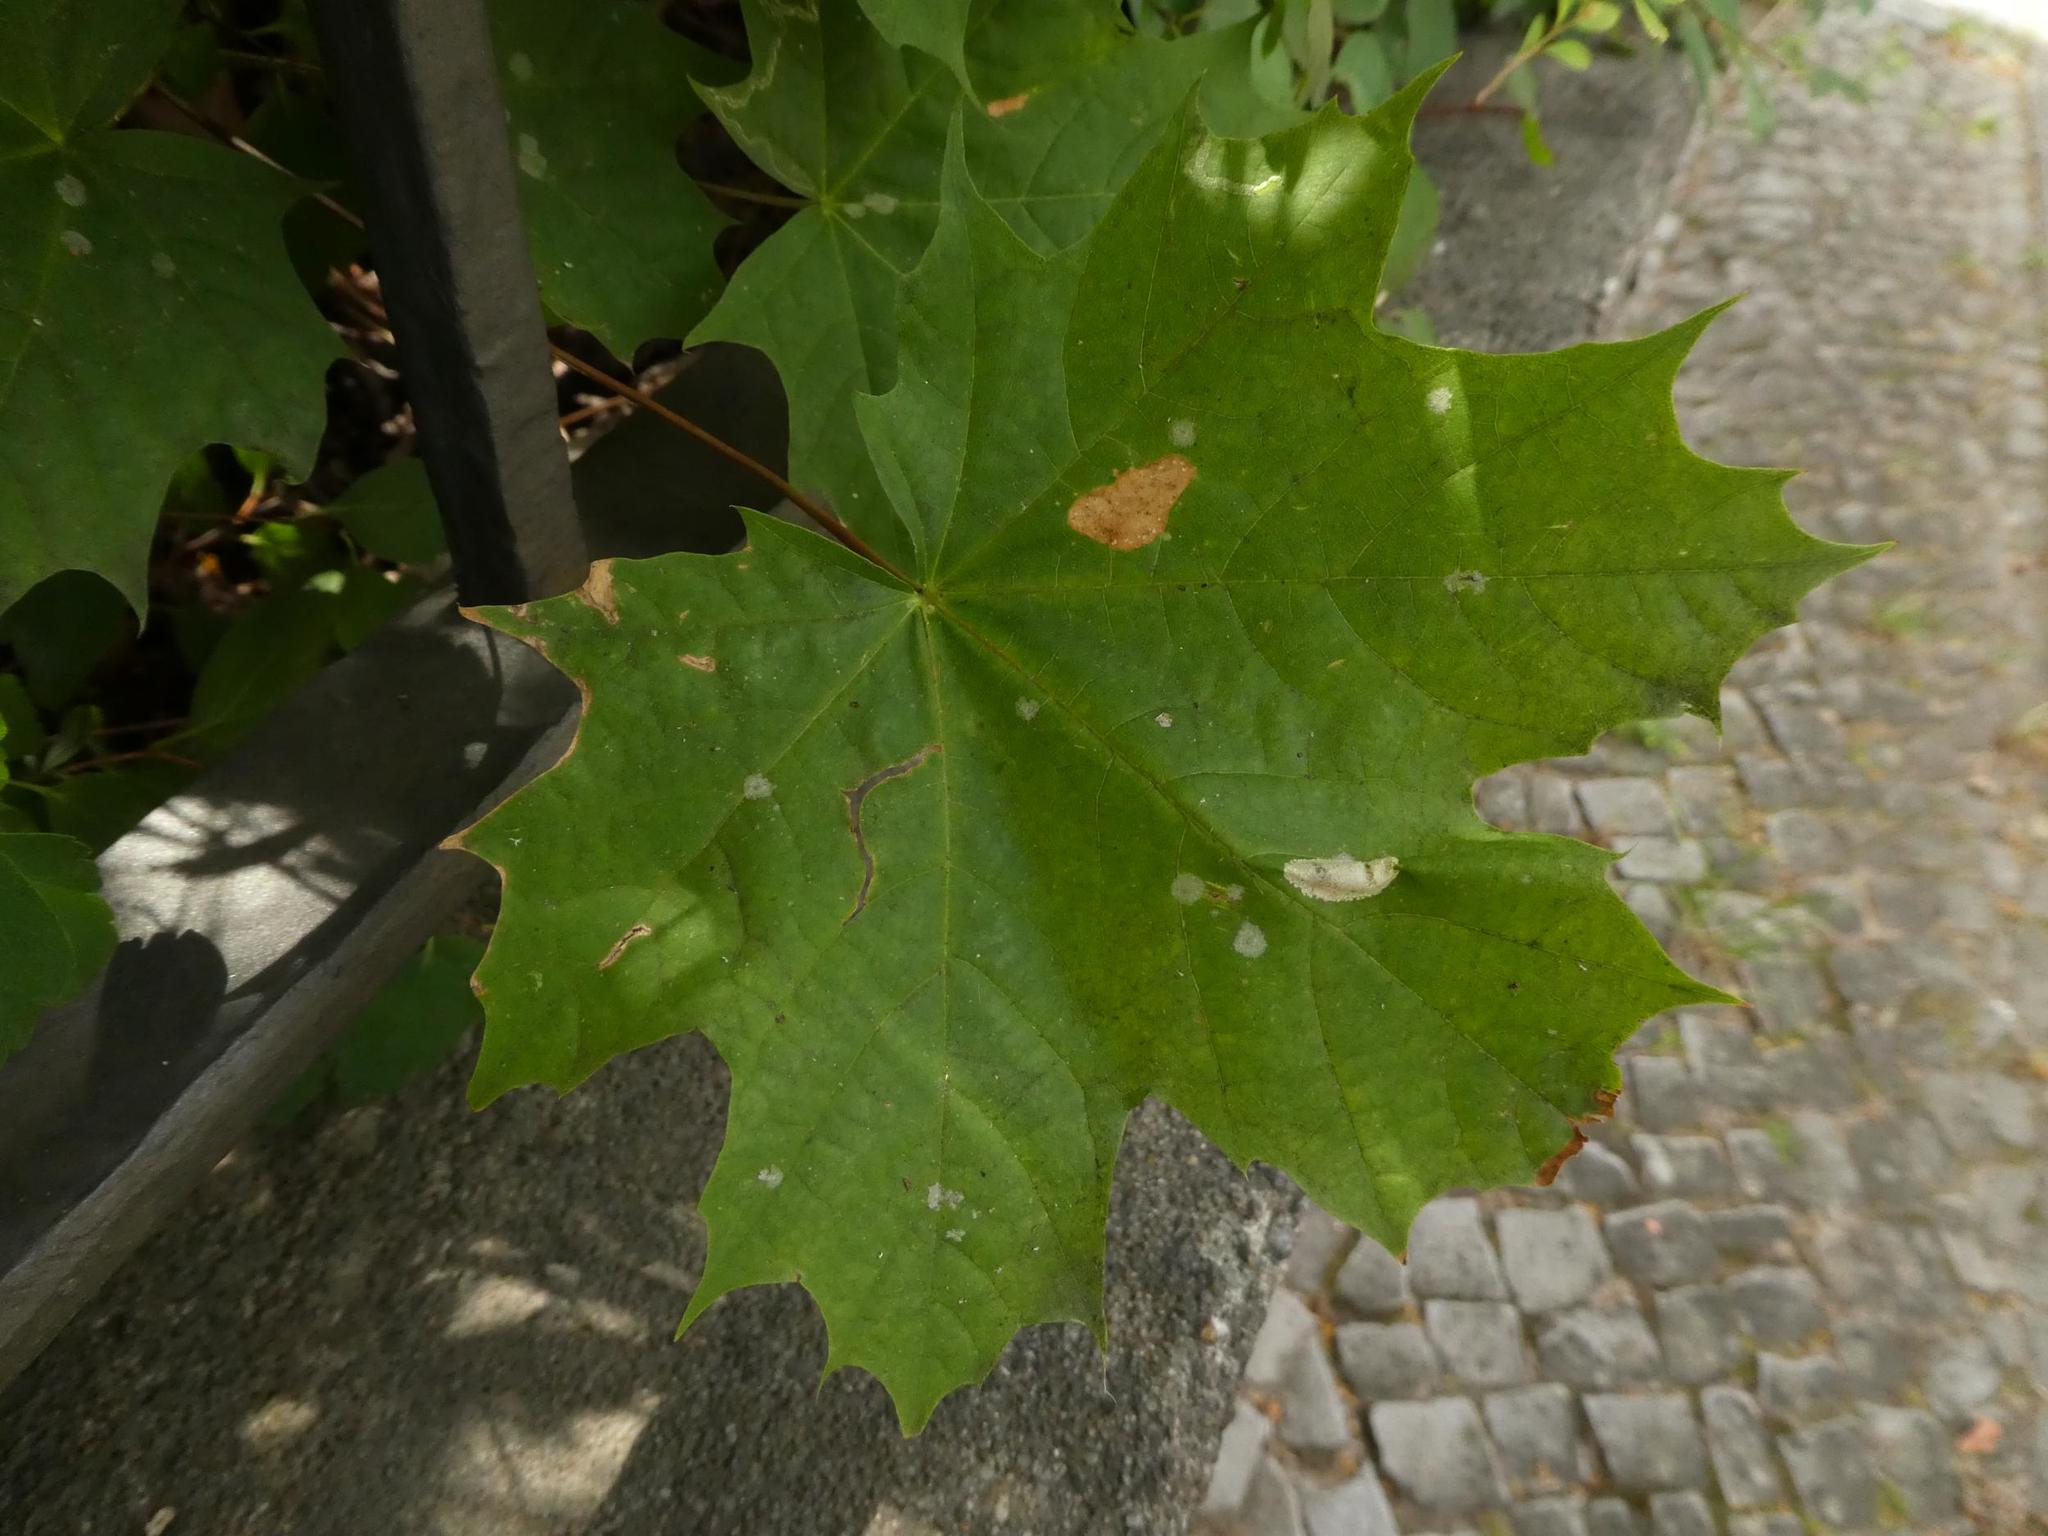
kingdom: Plantae
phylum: Tracheophyta
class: Magnoliopsida
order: Sapindales
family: Sapindaceae
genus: Acer
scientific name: Acer platanoides
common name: Norway maple
